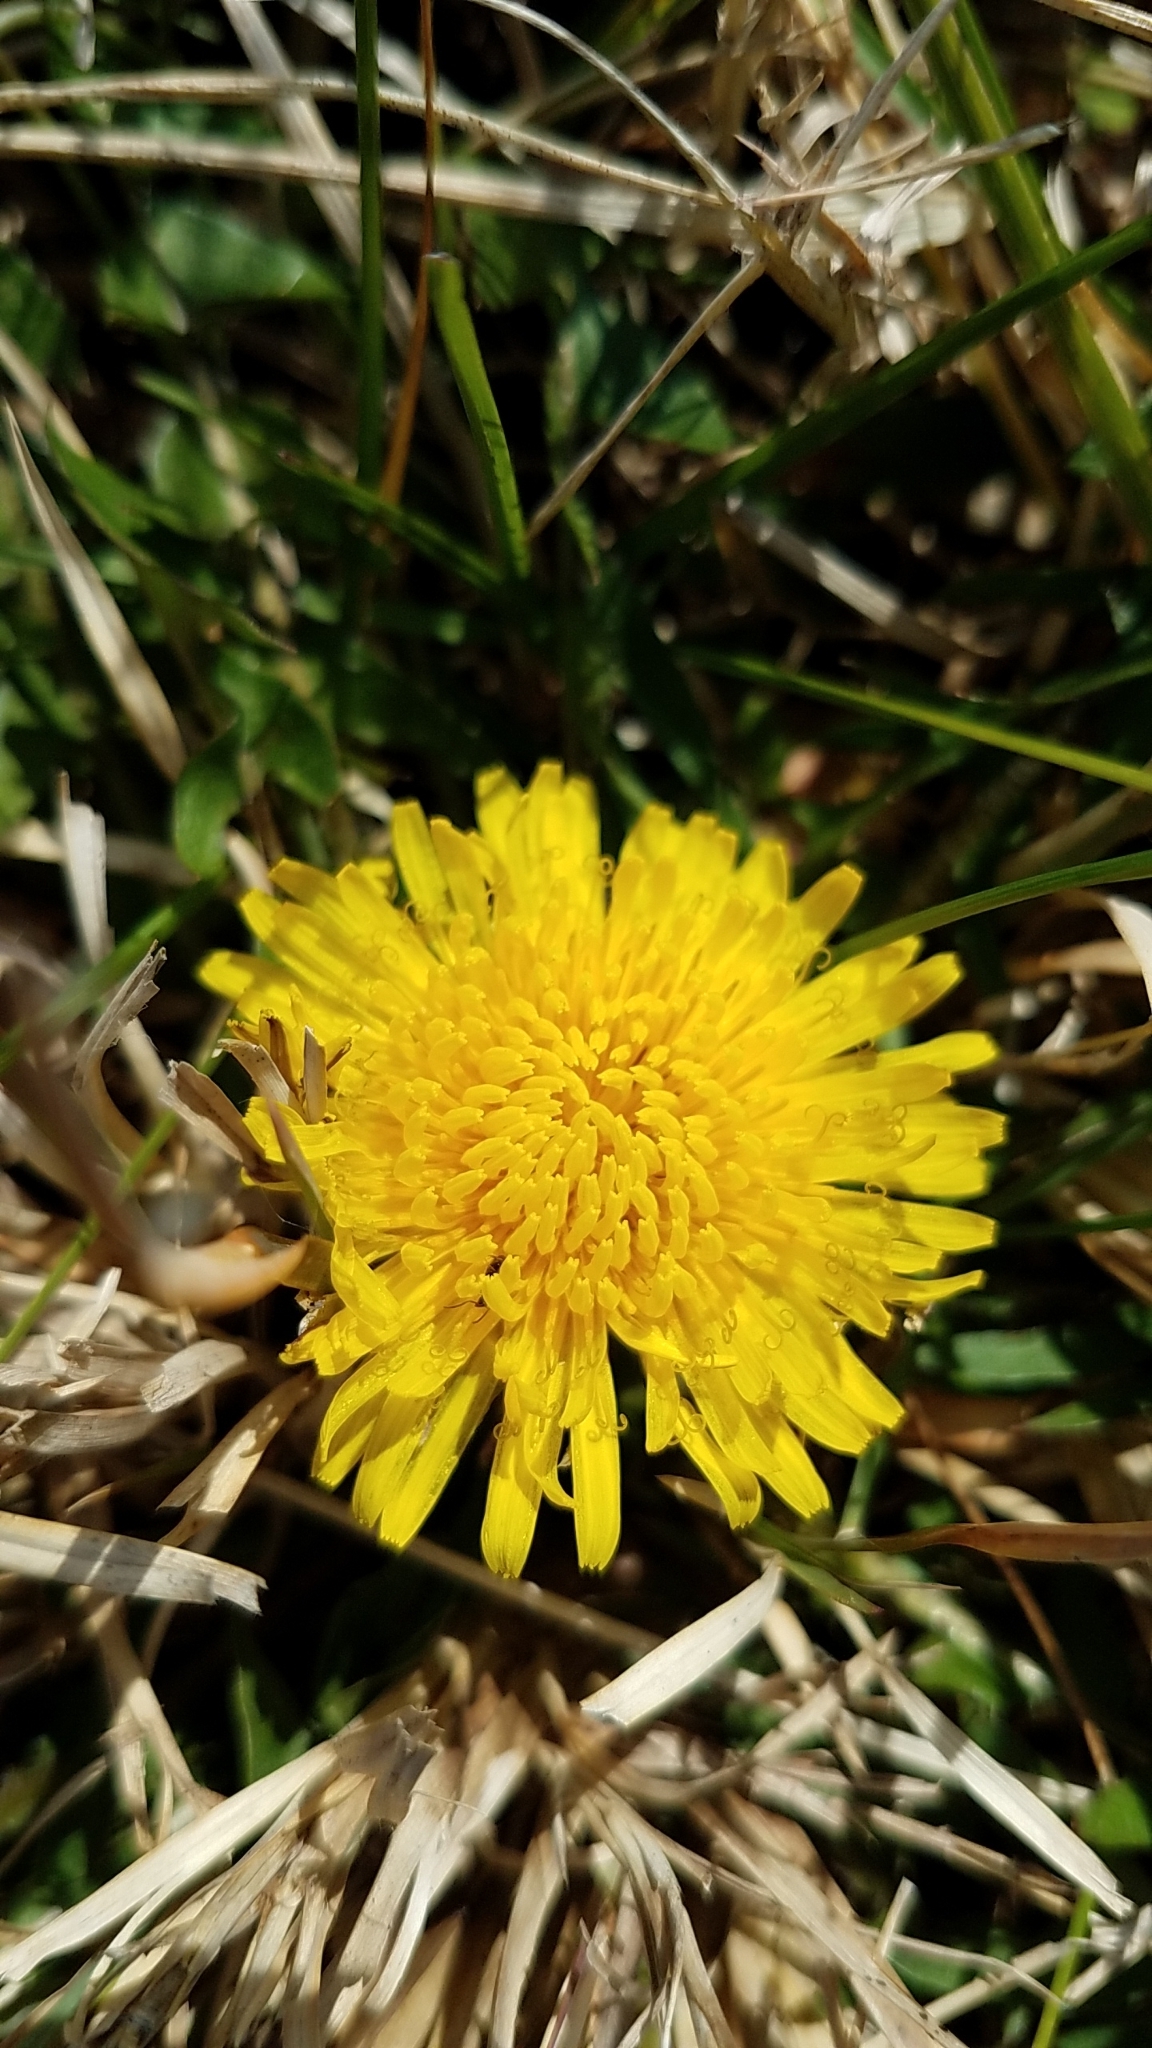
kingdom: Plantae
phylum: Tracheophyta
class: Magnoliopsida
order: Asterales
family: Asteraceae
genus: Taraxacum
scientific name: Taraxacum officinale
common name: Common dandelion
